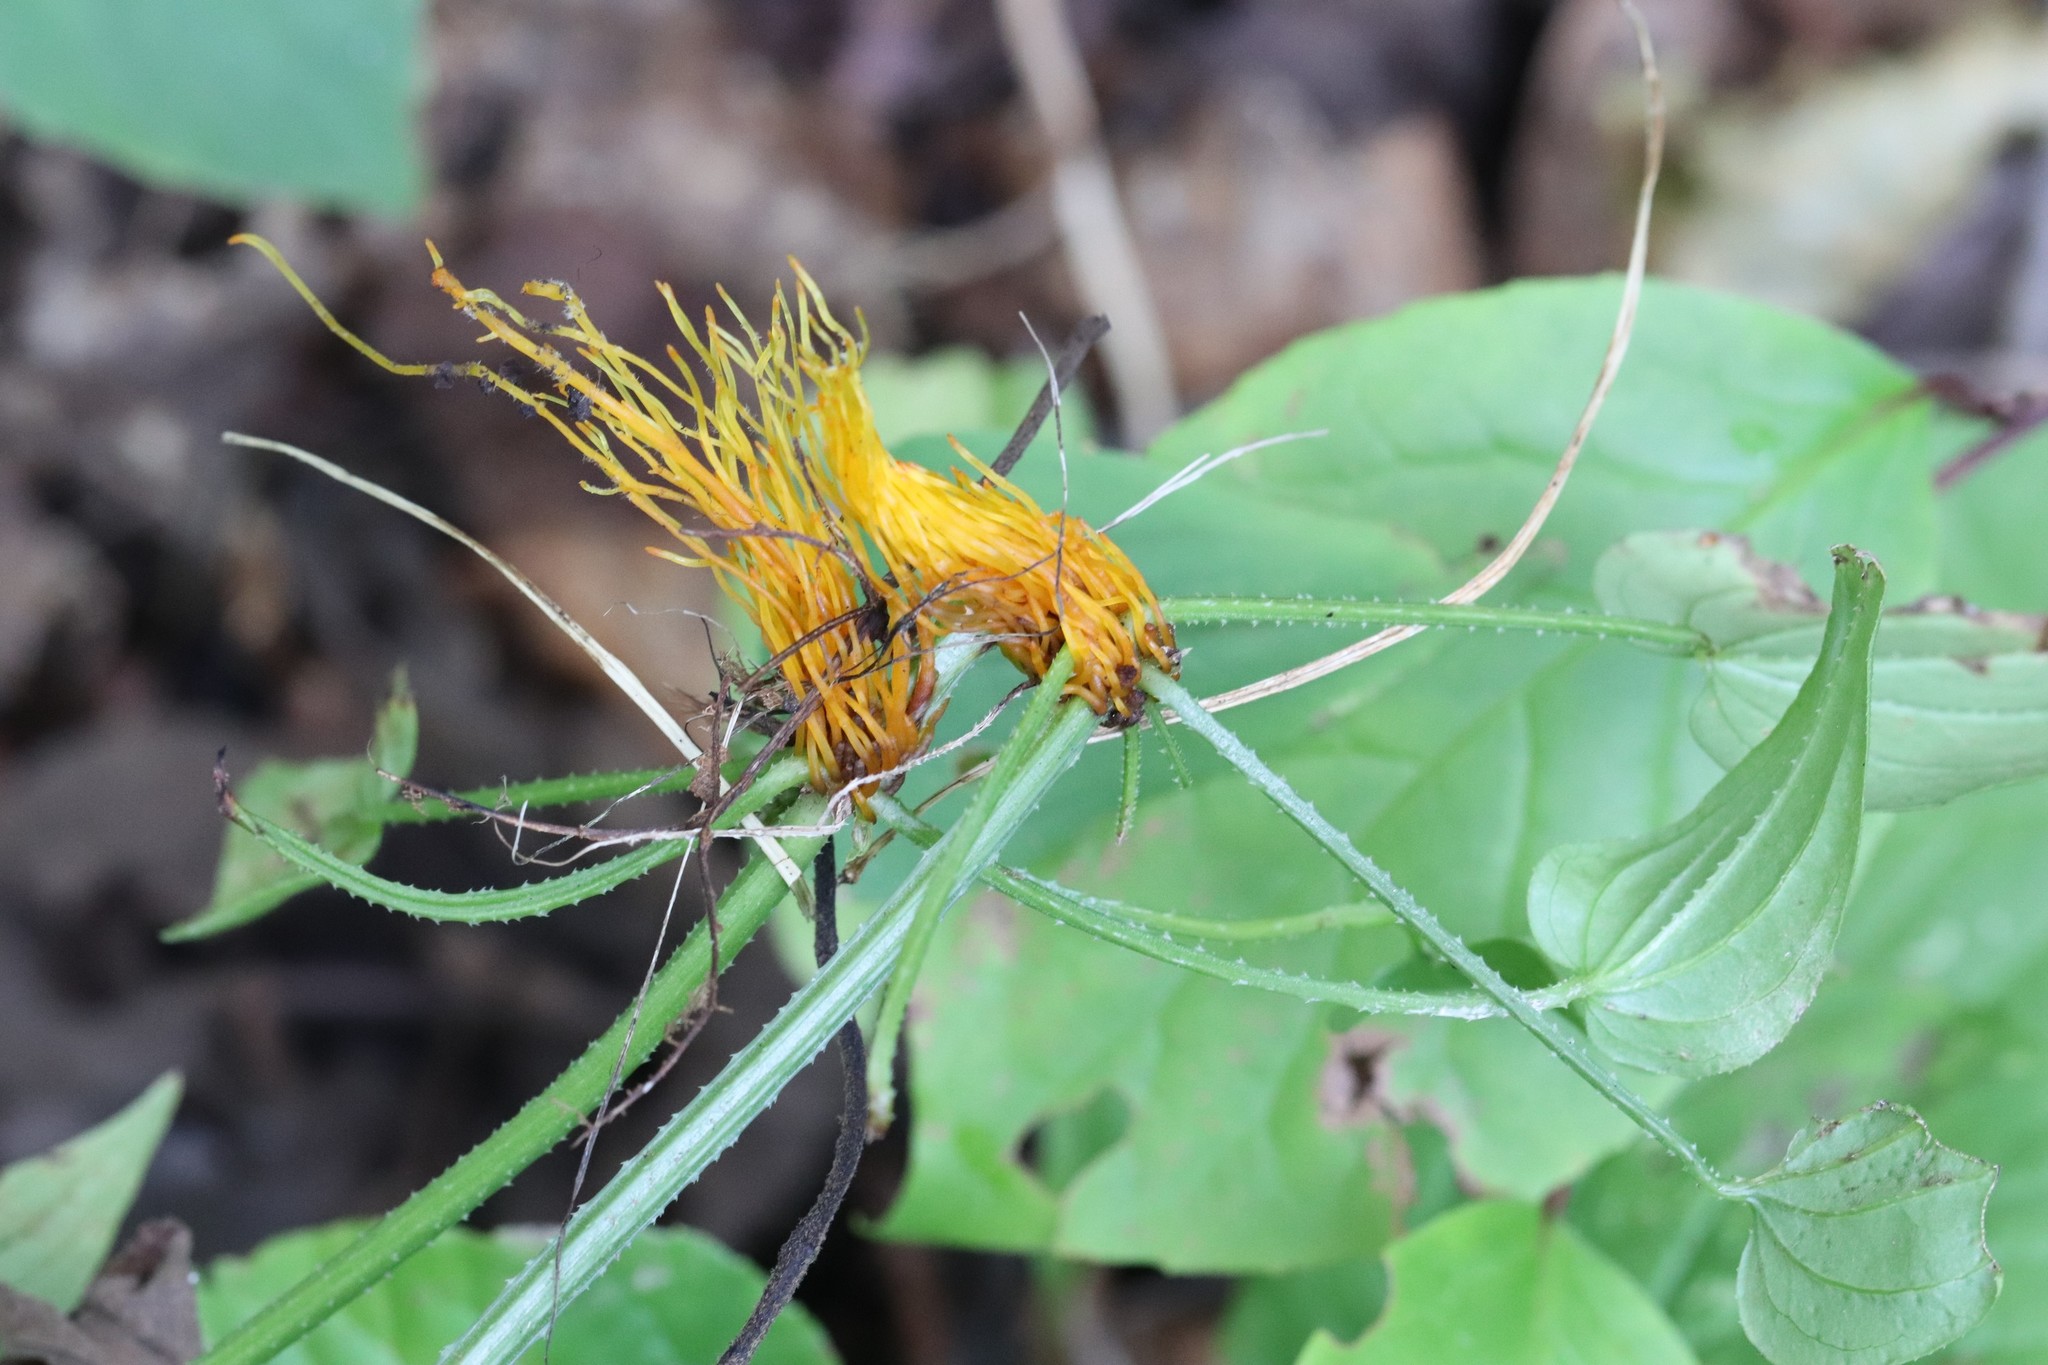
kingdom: Plantae
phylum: Tracheophyta
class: Magnoliopsida
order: Gentianales
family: Rubiaceae
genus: Rubia
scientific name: Rubia cordifolia
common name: Indian madder
